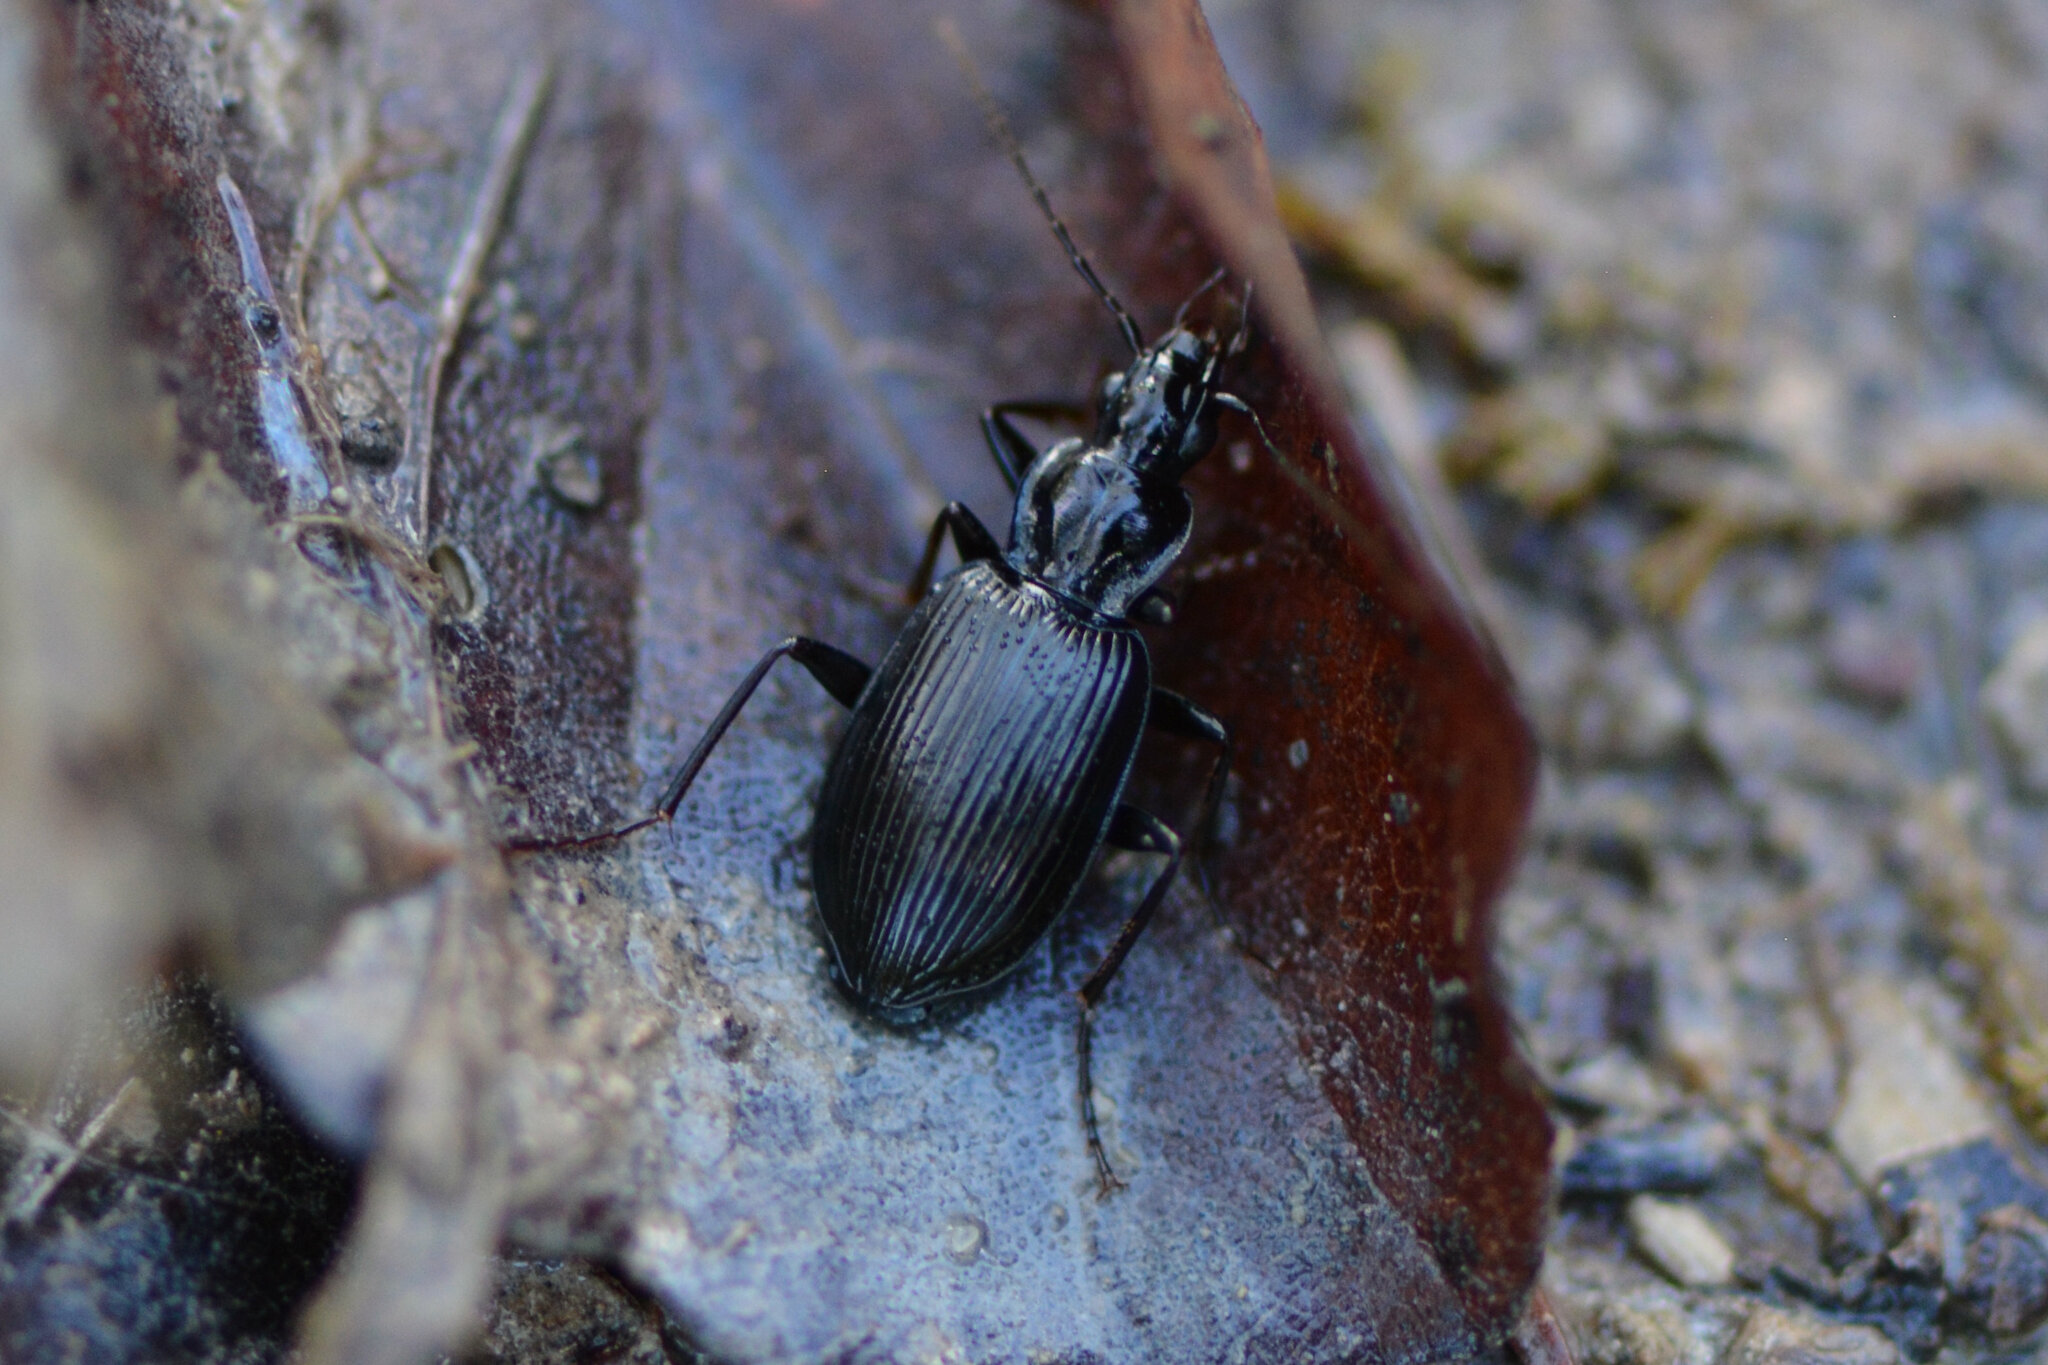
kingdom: Animalia
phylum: Arthropoda
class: Insecta
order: Coleoptera
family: Carabidae
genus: Platynus
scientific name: Platynus assimilis
